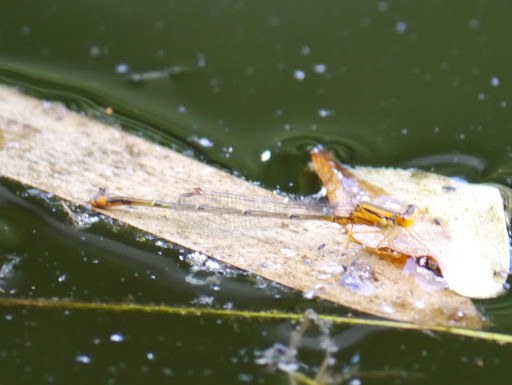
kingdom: Animalia
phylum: Arthropoda
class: Insecta
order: Odonata
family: Coenagrionidae
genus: Enallagma
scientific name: Enallagma signatum
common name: Orange bluet
